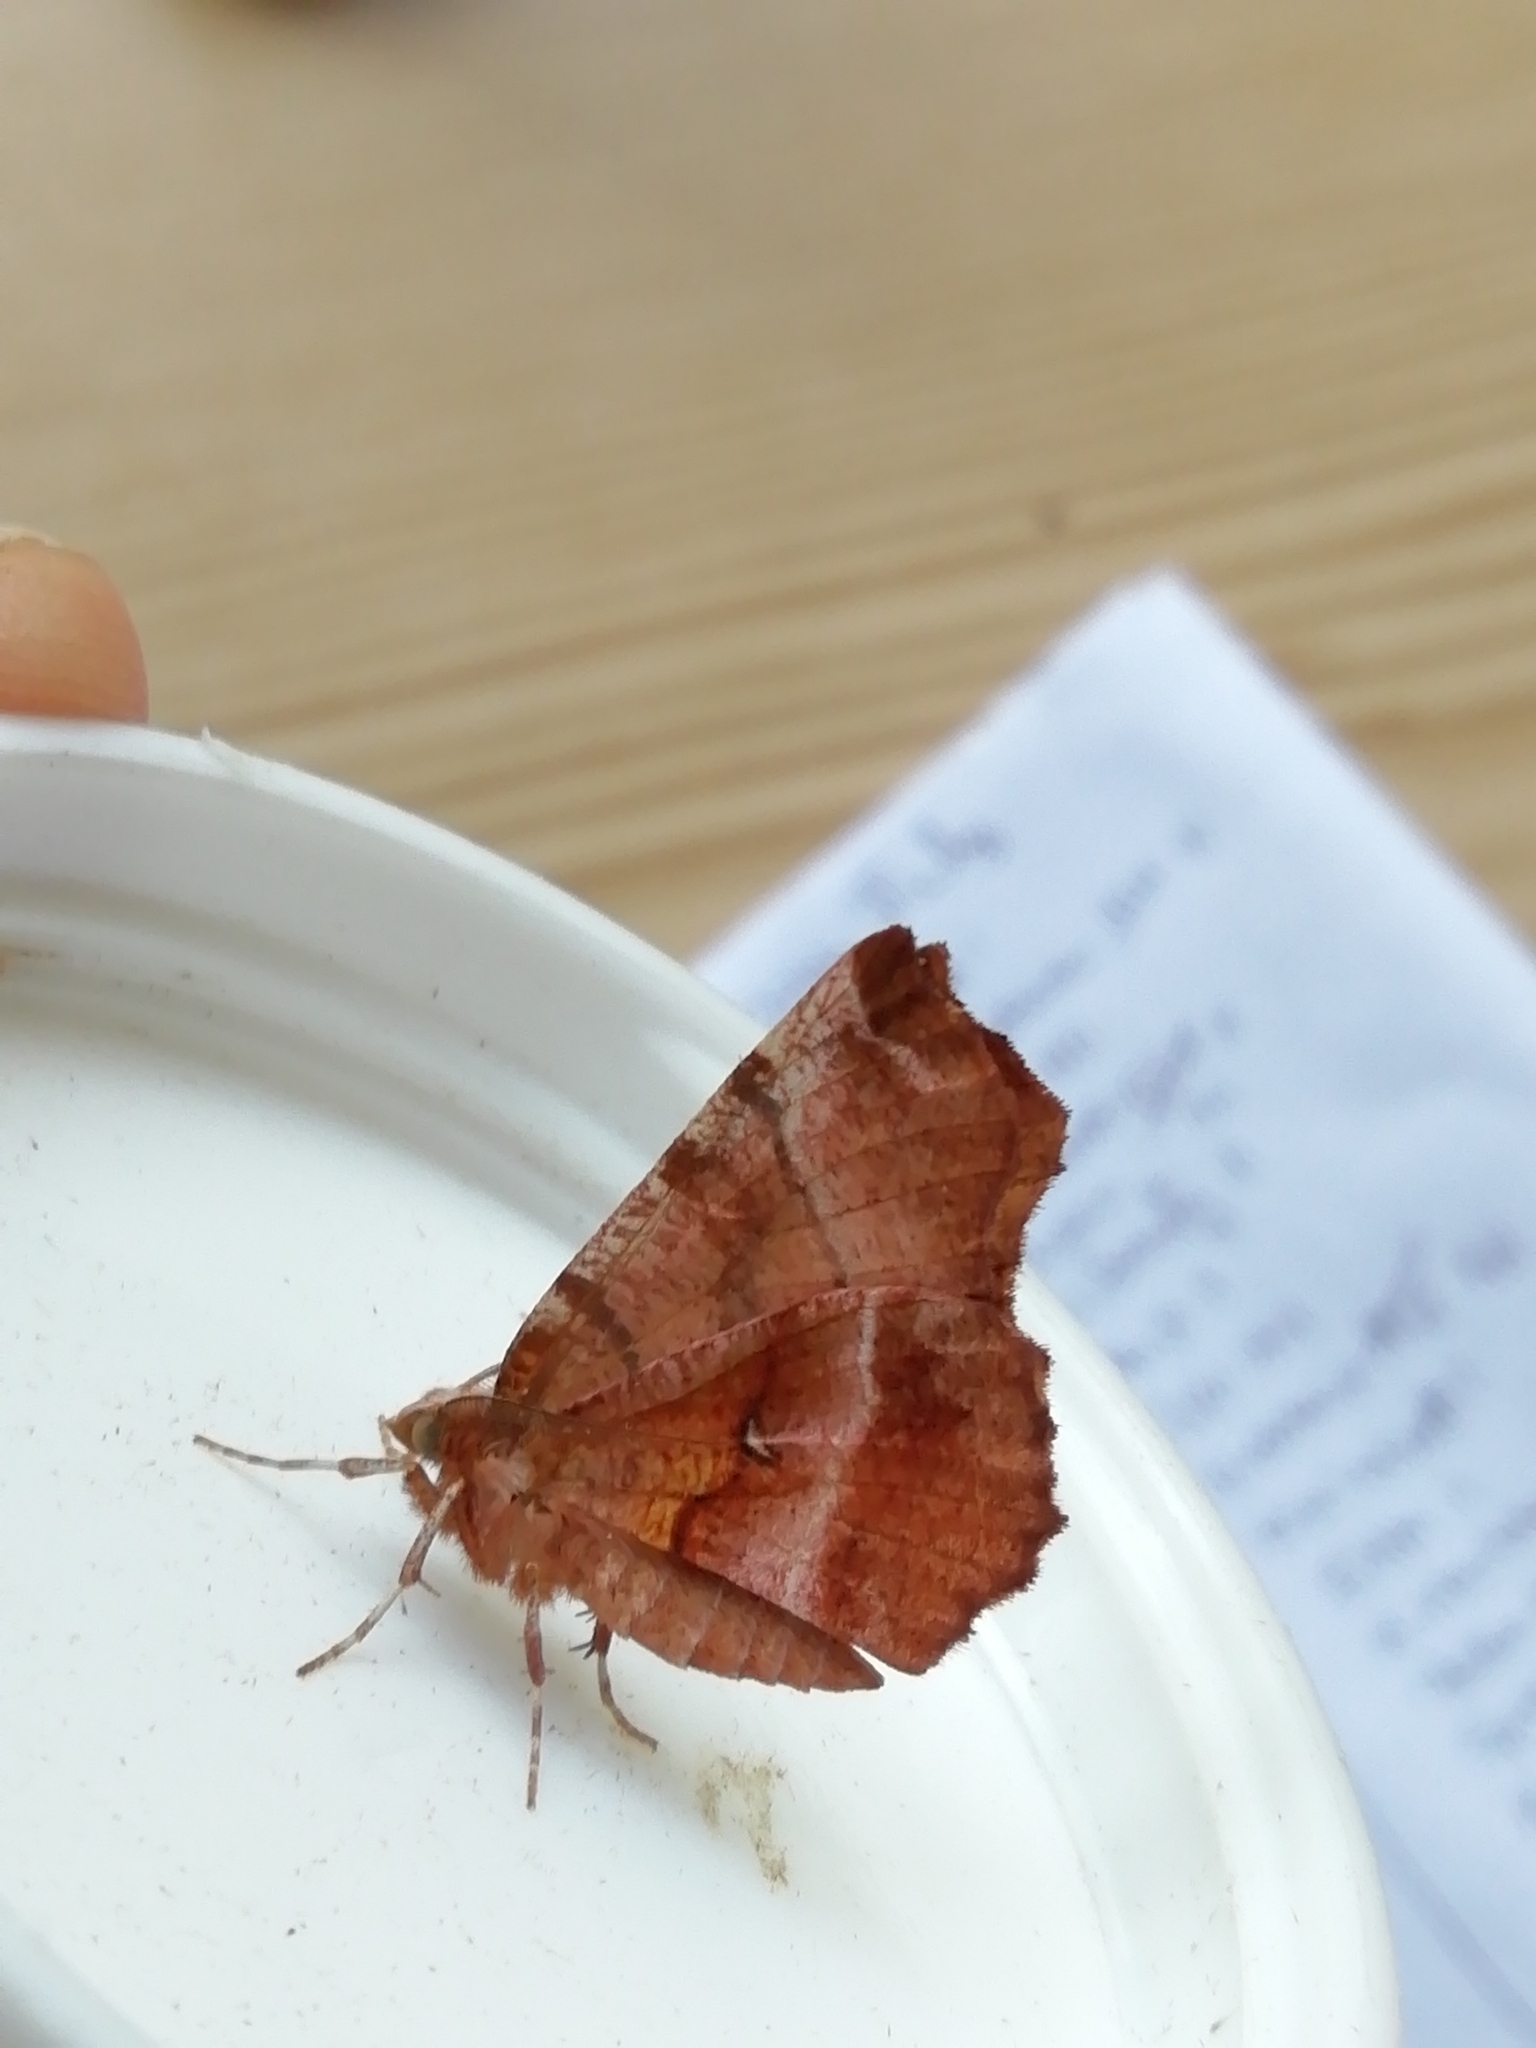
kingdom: Animalia
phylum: Arthropoda
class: Insecta
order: Lepidoptera
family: Geometridae
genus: Selenia
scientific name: Selenia dentaria
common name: Early thorn
